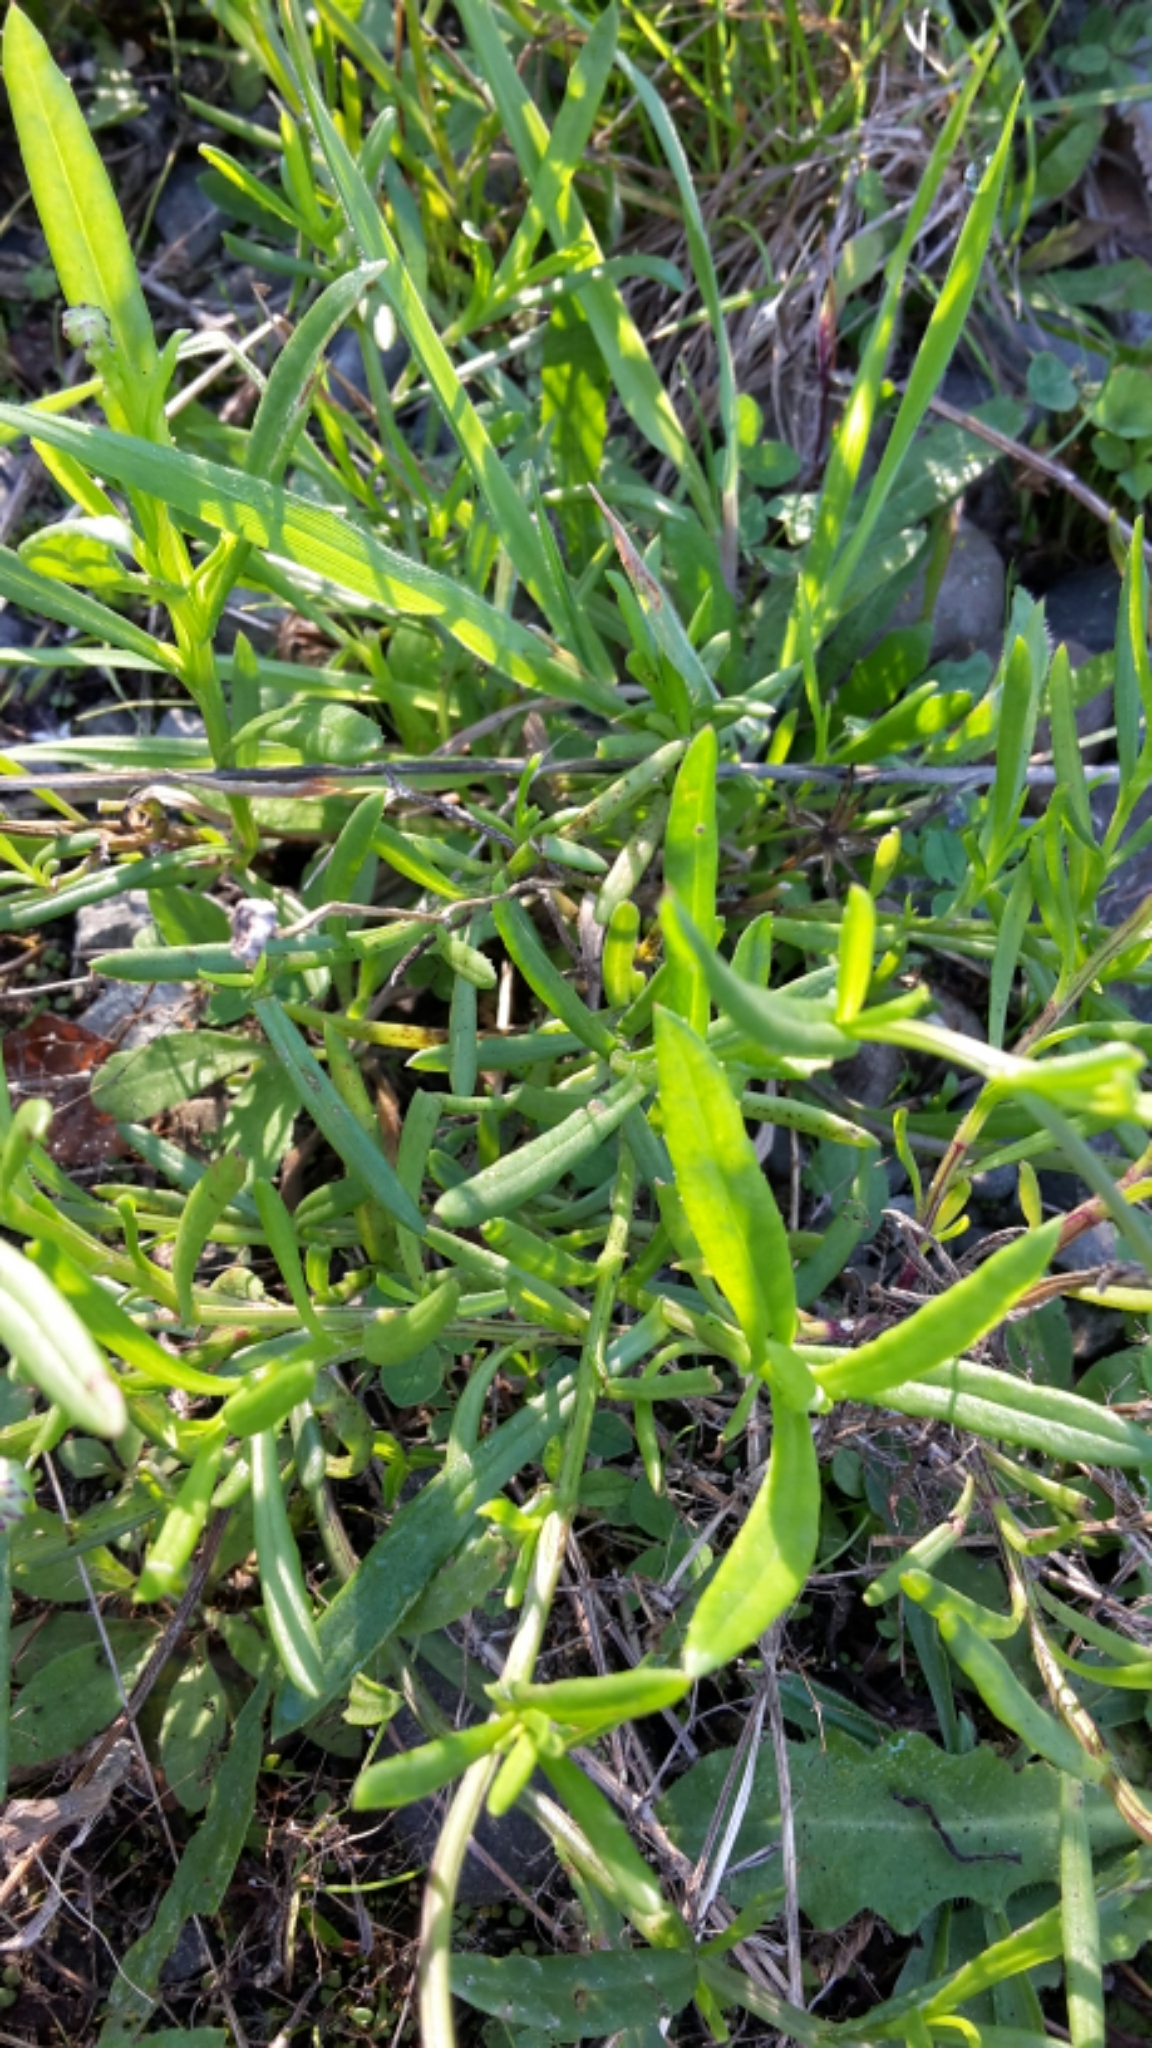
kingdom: Plantae
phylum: Tracheophyta
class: Magnoliopsida
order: Asterales
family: Asteraceae
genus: Senecio
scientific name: Senecio skirrhodon
